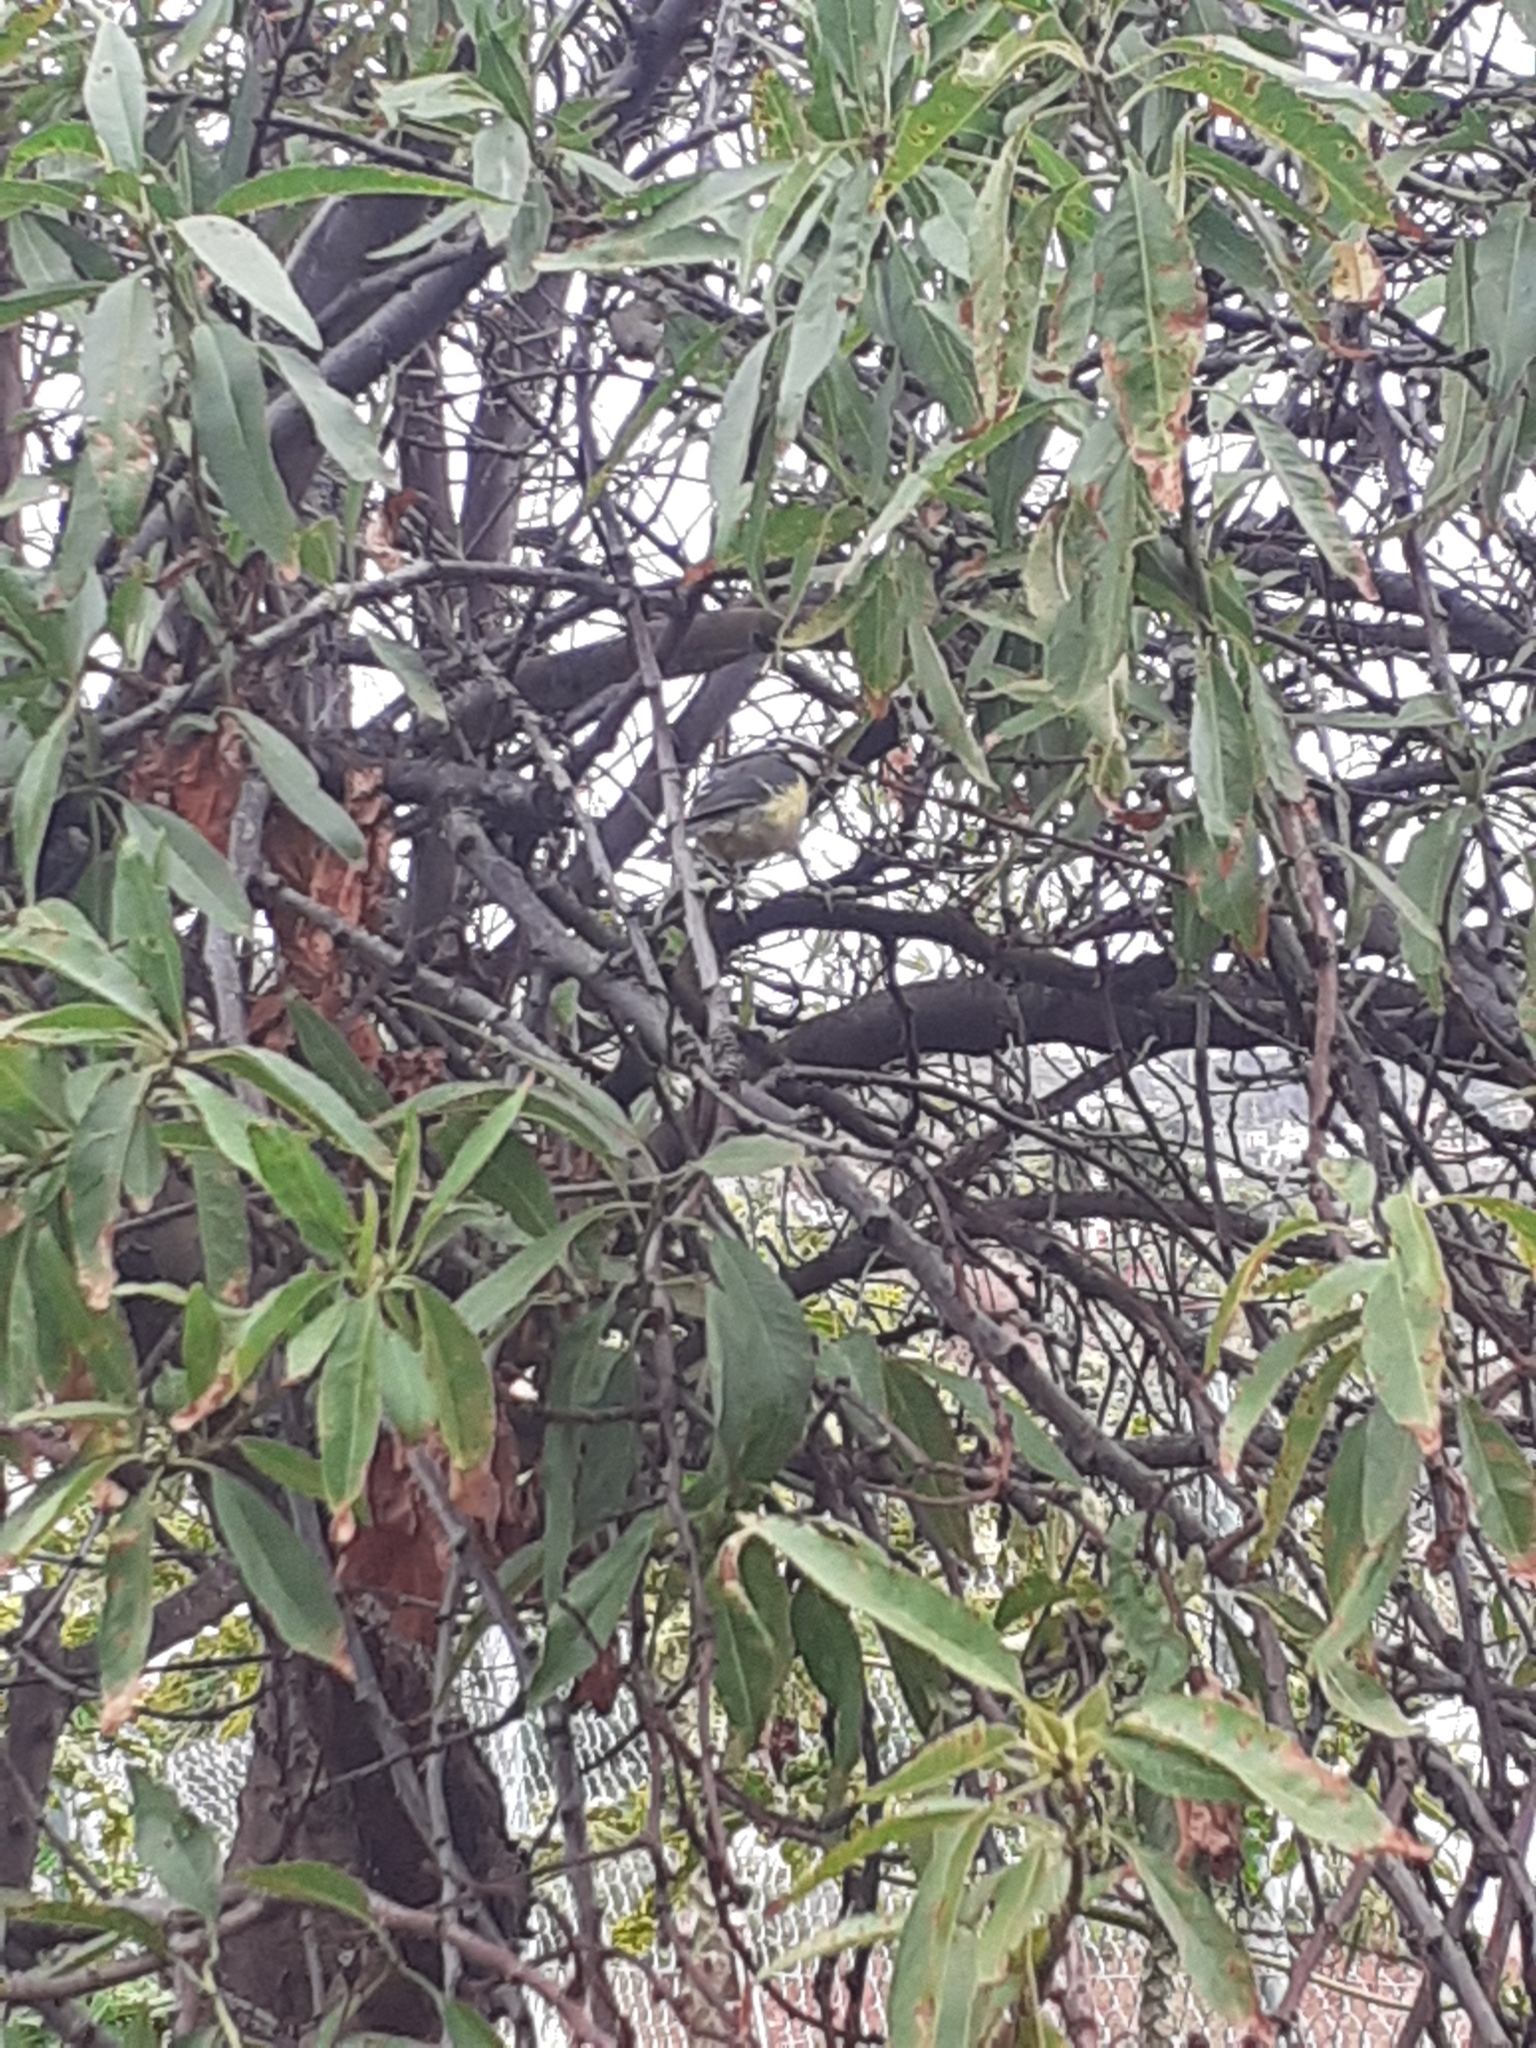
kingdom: Animalia
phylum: Chordata
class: Aves
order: Passeriformes
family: Paridae
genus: Cyanistes
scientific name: Cyanistes teneriffae
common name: African blue tit
